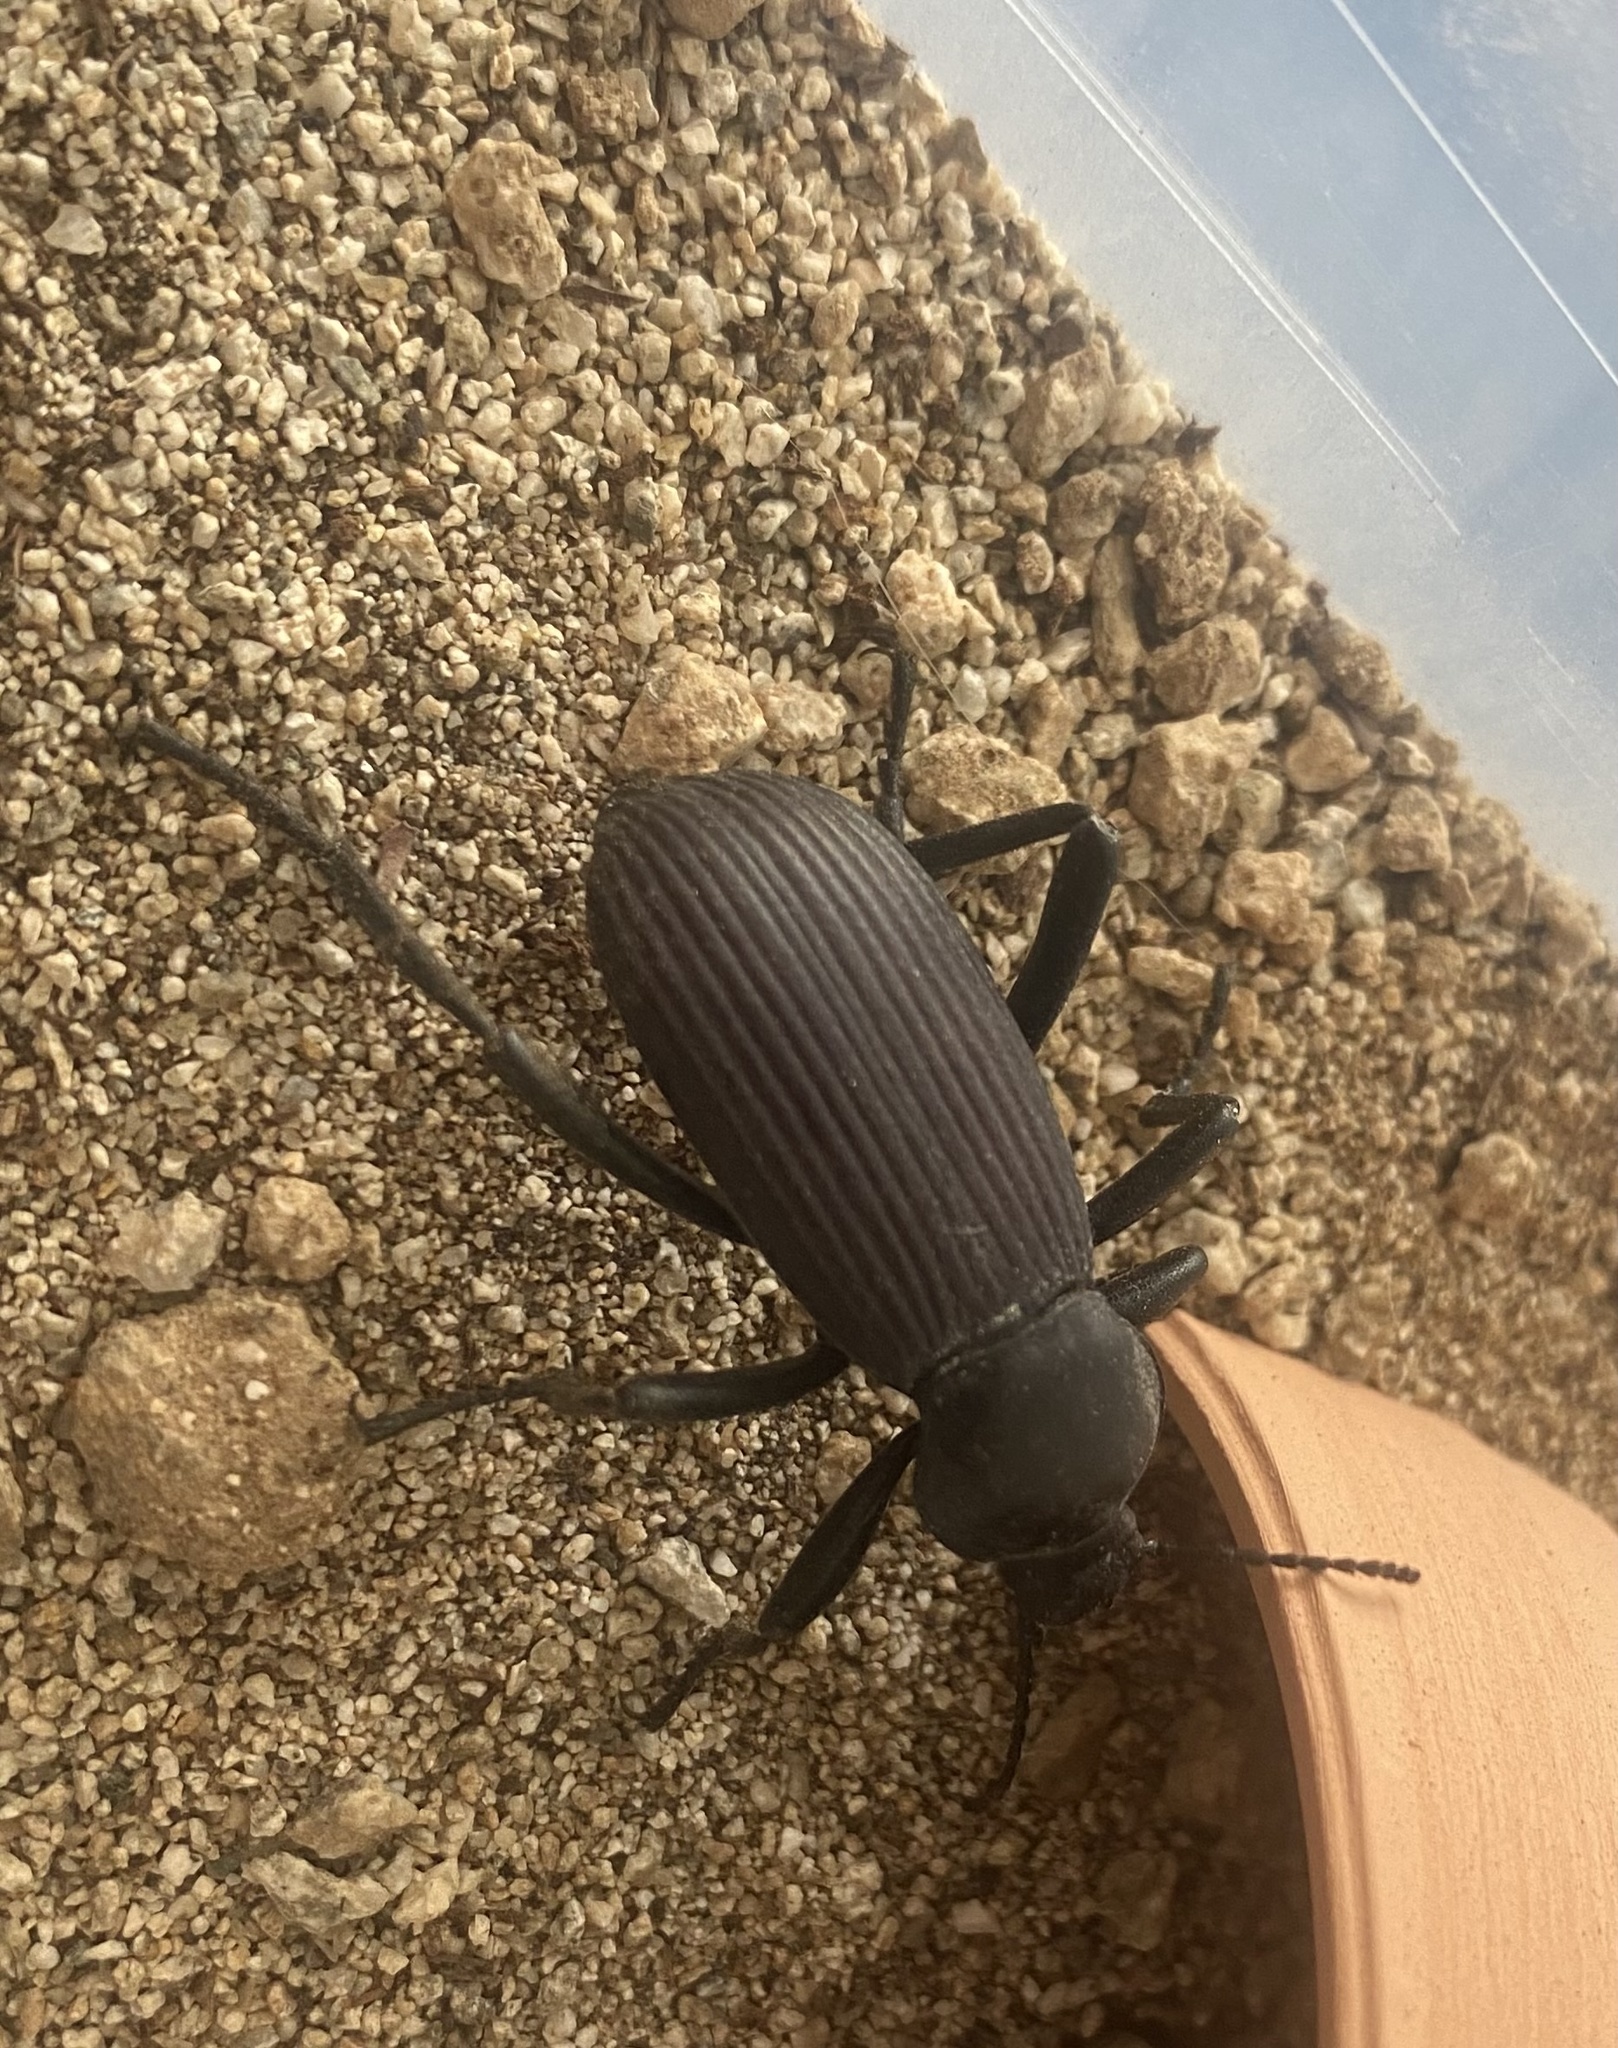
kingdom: Animalia
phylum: Arthropoda
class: Insecta
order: Coleoptera
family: Tenebrionidae
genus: Eleodes
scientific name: Eleodes obscura
